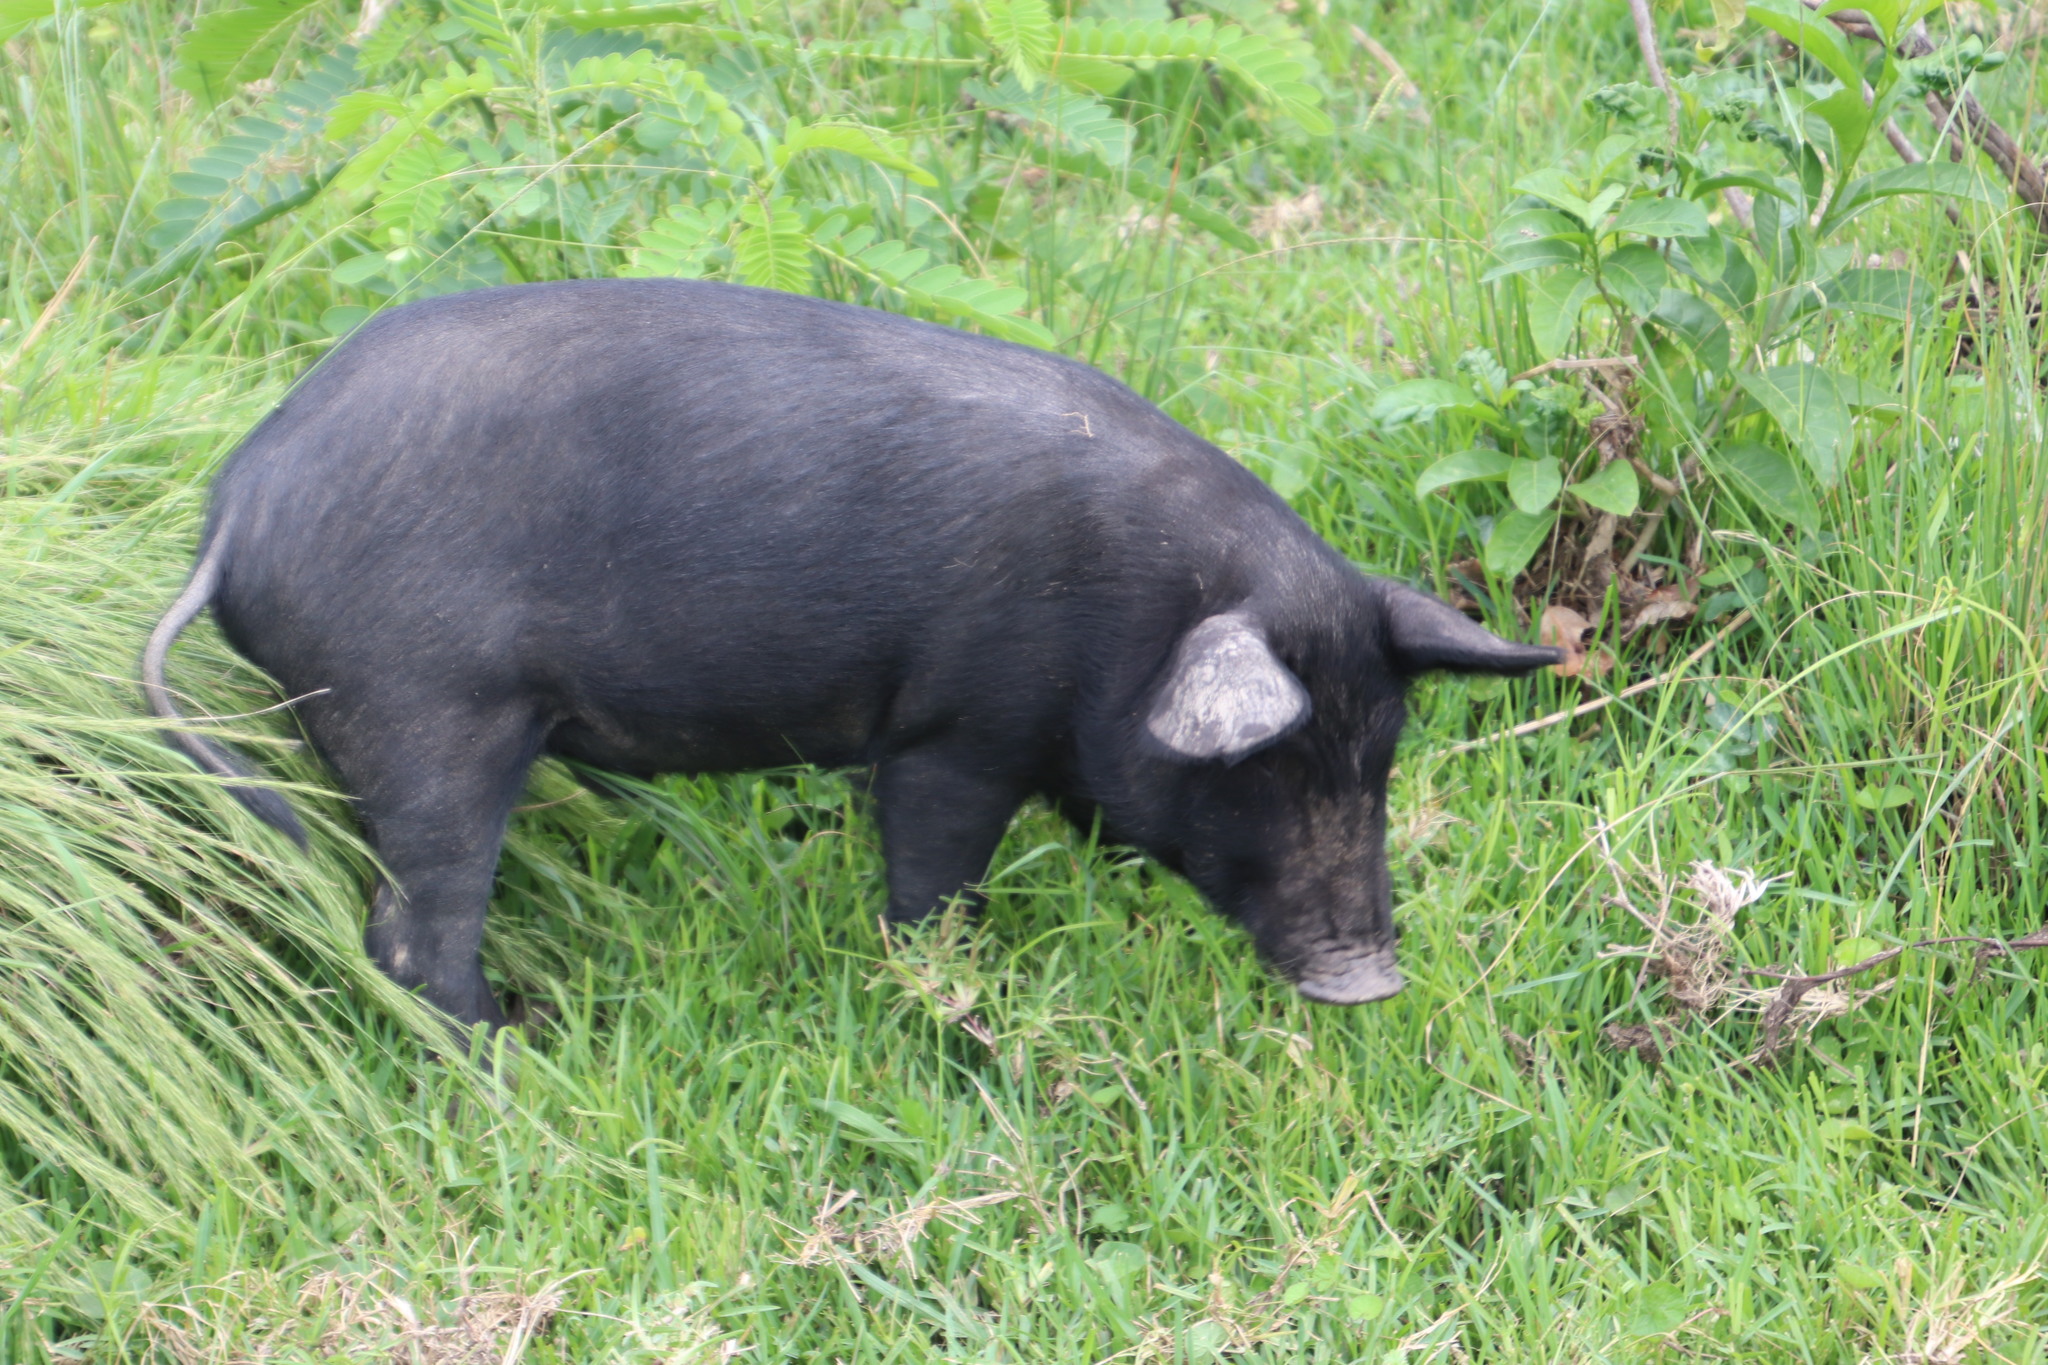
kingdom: Animalia
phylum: Chordata
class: Mammalia
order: Artiodactyla
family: Suidae
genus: Sus
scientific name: Sus scrofa
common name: Wild boar
